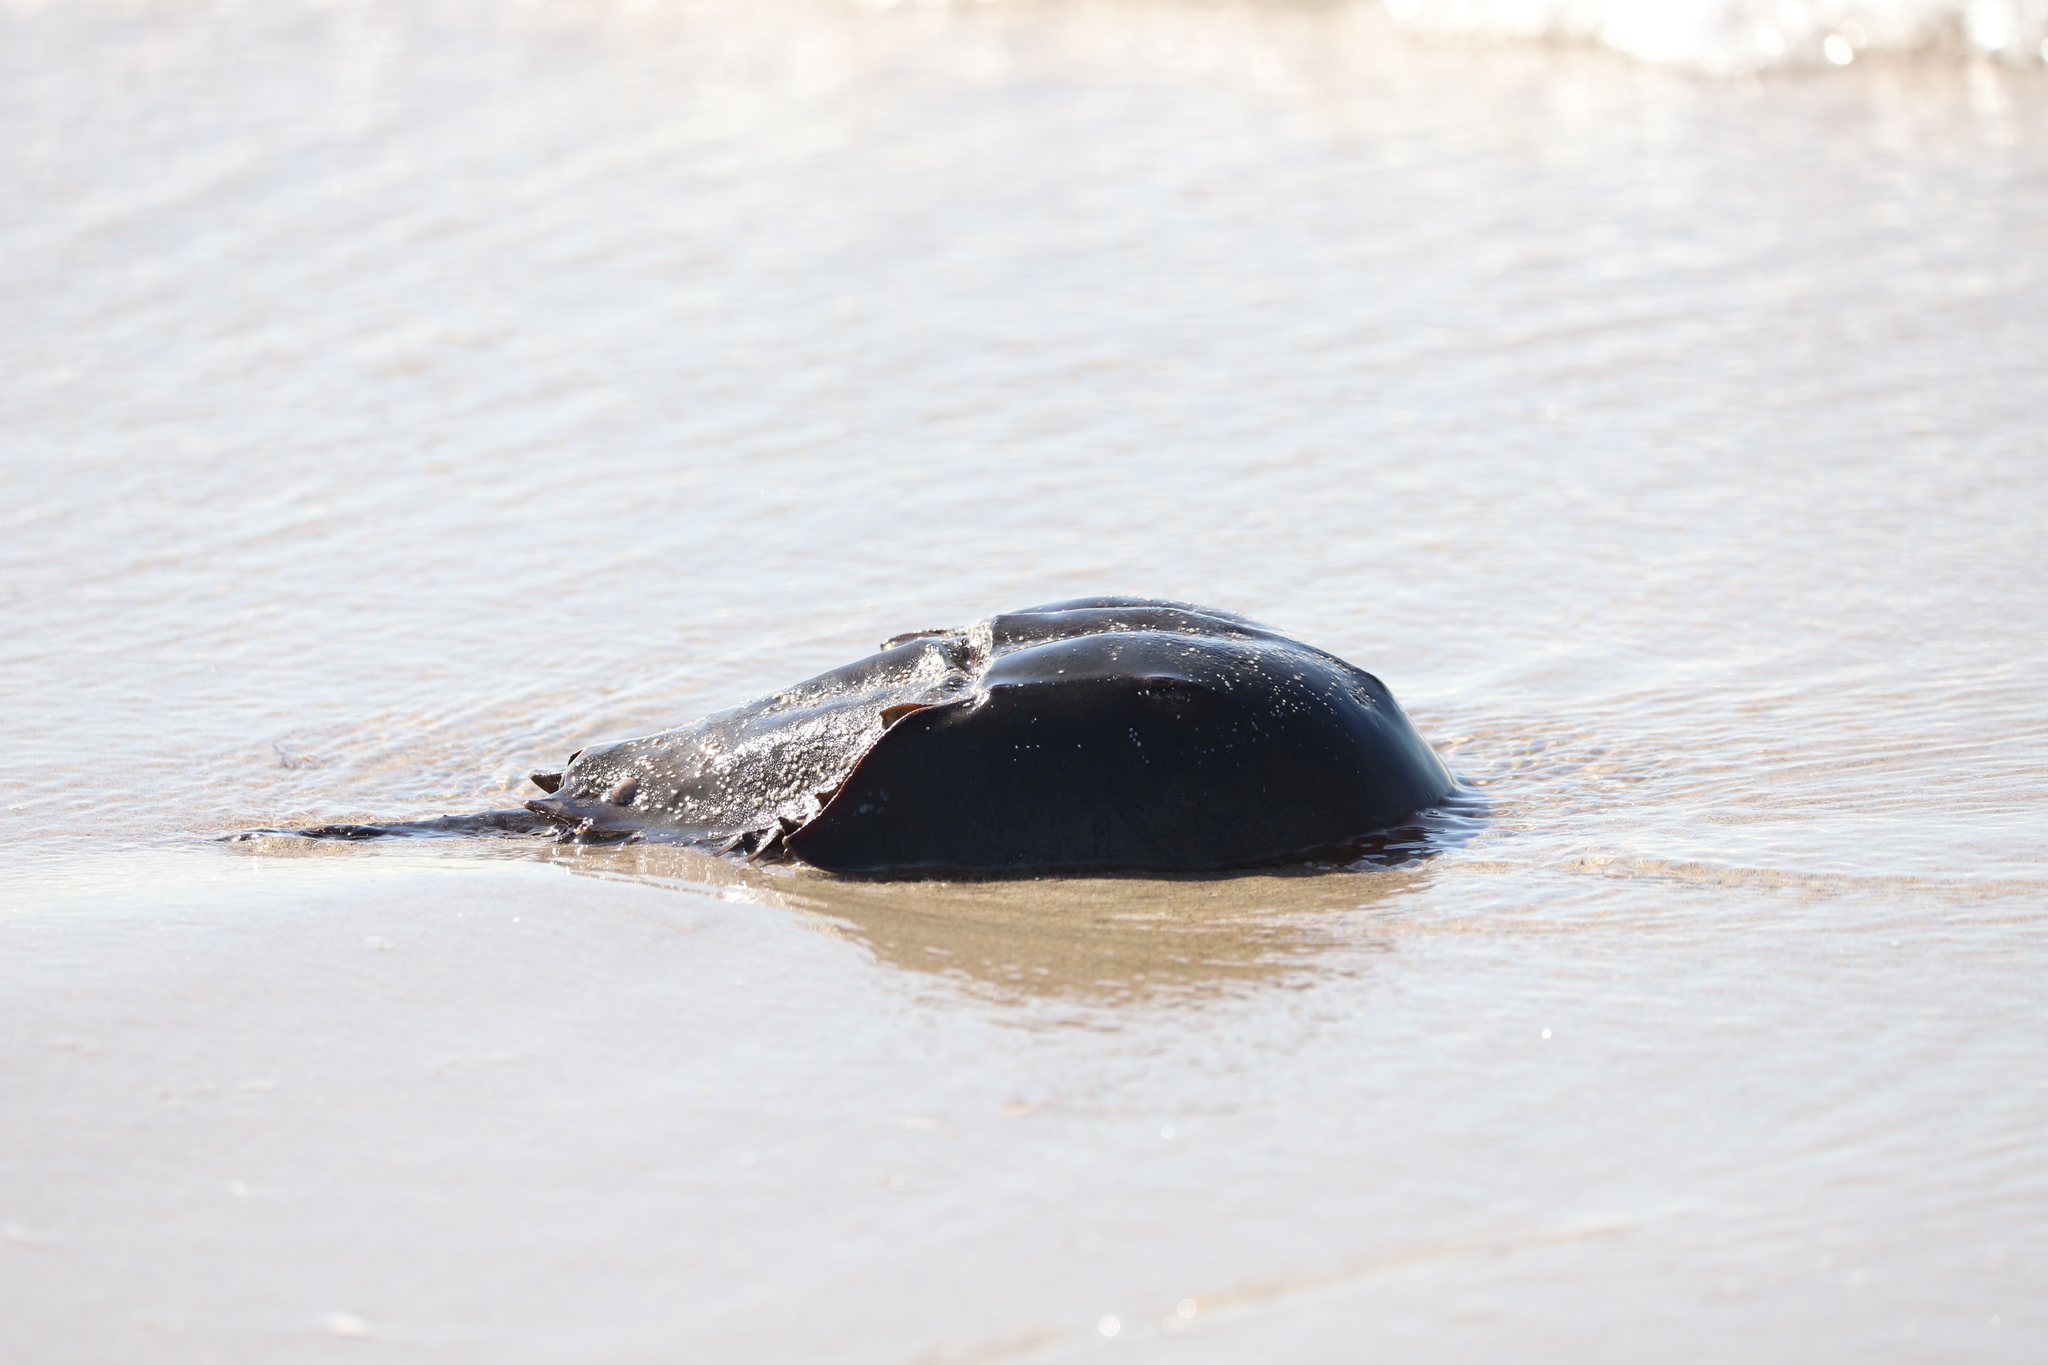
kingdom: Animalia
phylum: Arthropoda
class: Merostomata
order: Xiphosurida
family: Limulidae
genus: Limulus
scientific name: Limulus polyphemus
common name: Horseshoe crab
